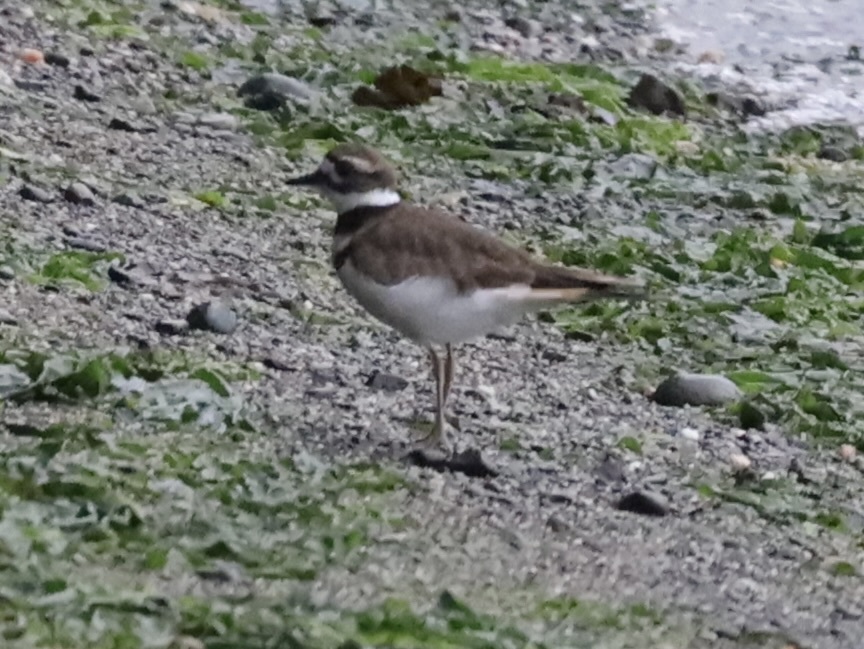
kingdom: Animalia
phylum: Chordata
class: Aves
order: Charadriiformes
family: Charadriidae
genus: Charadrius
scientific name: Charadrius vociferus
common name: Killdeer
